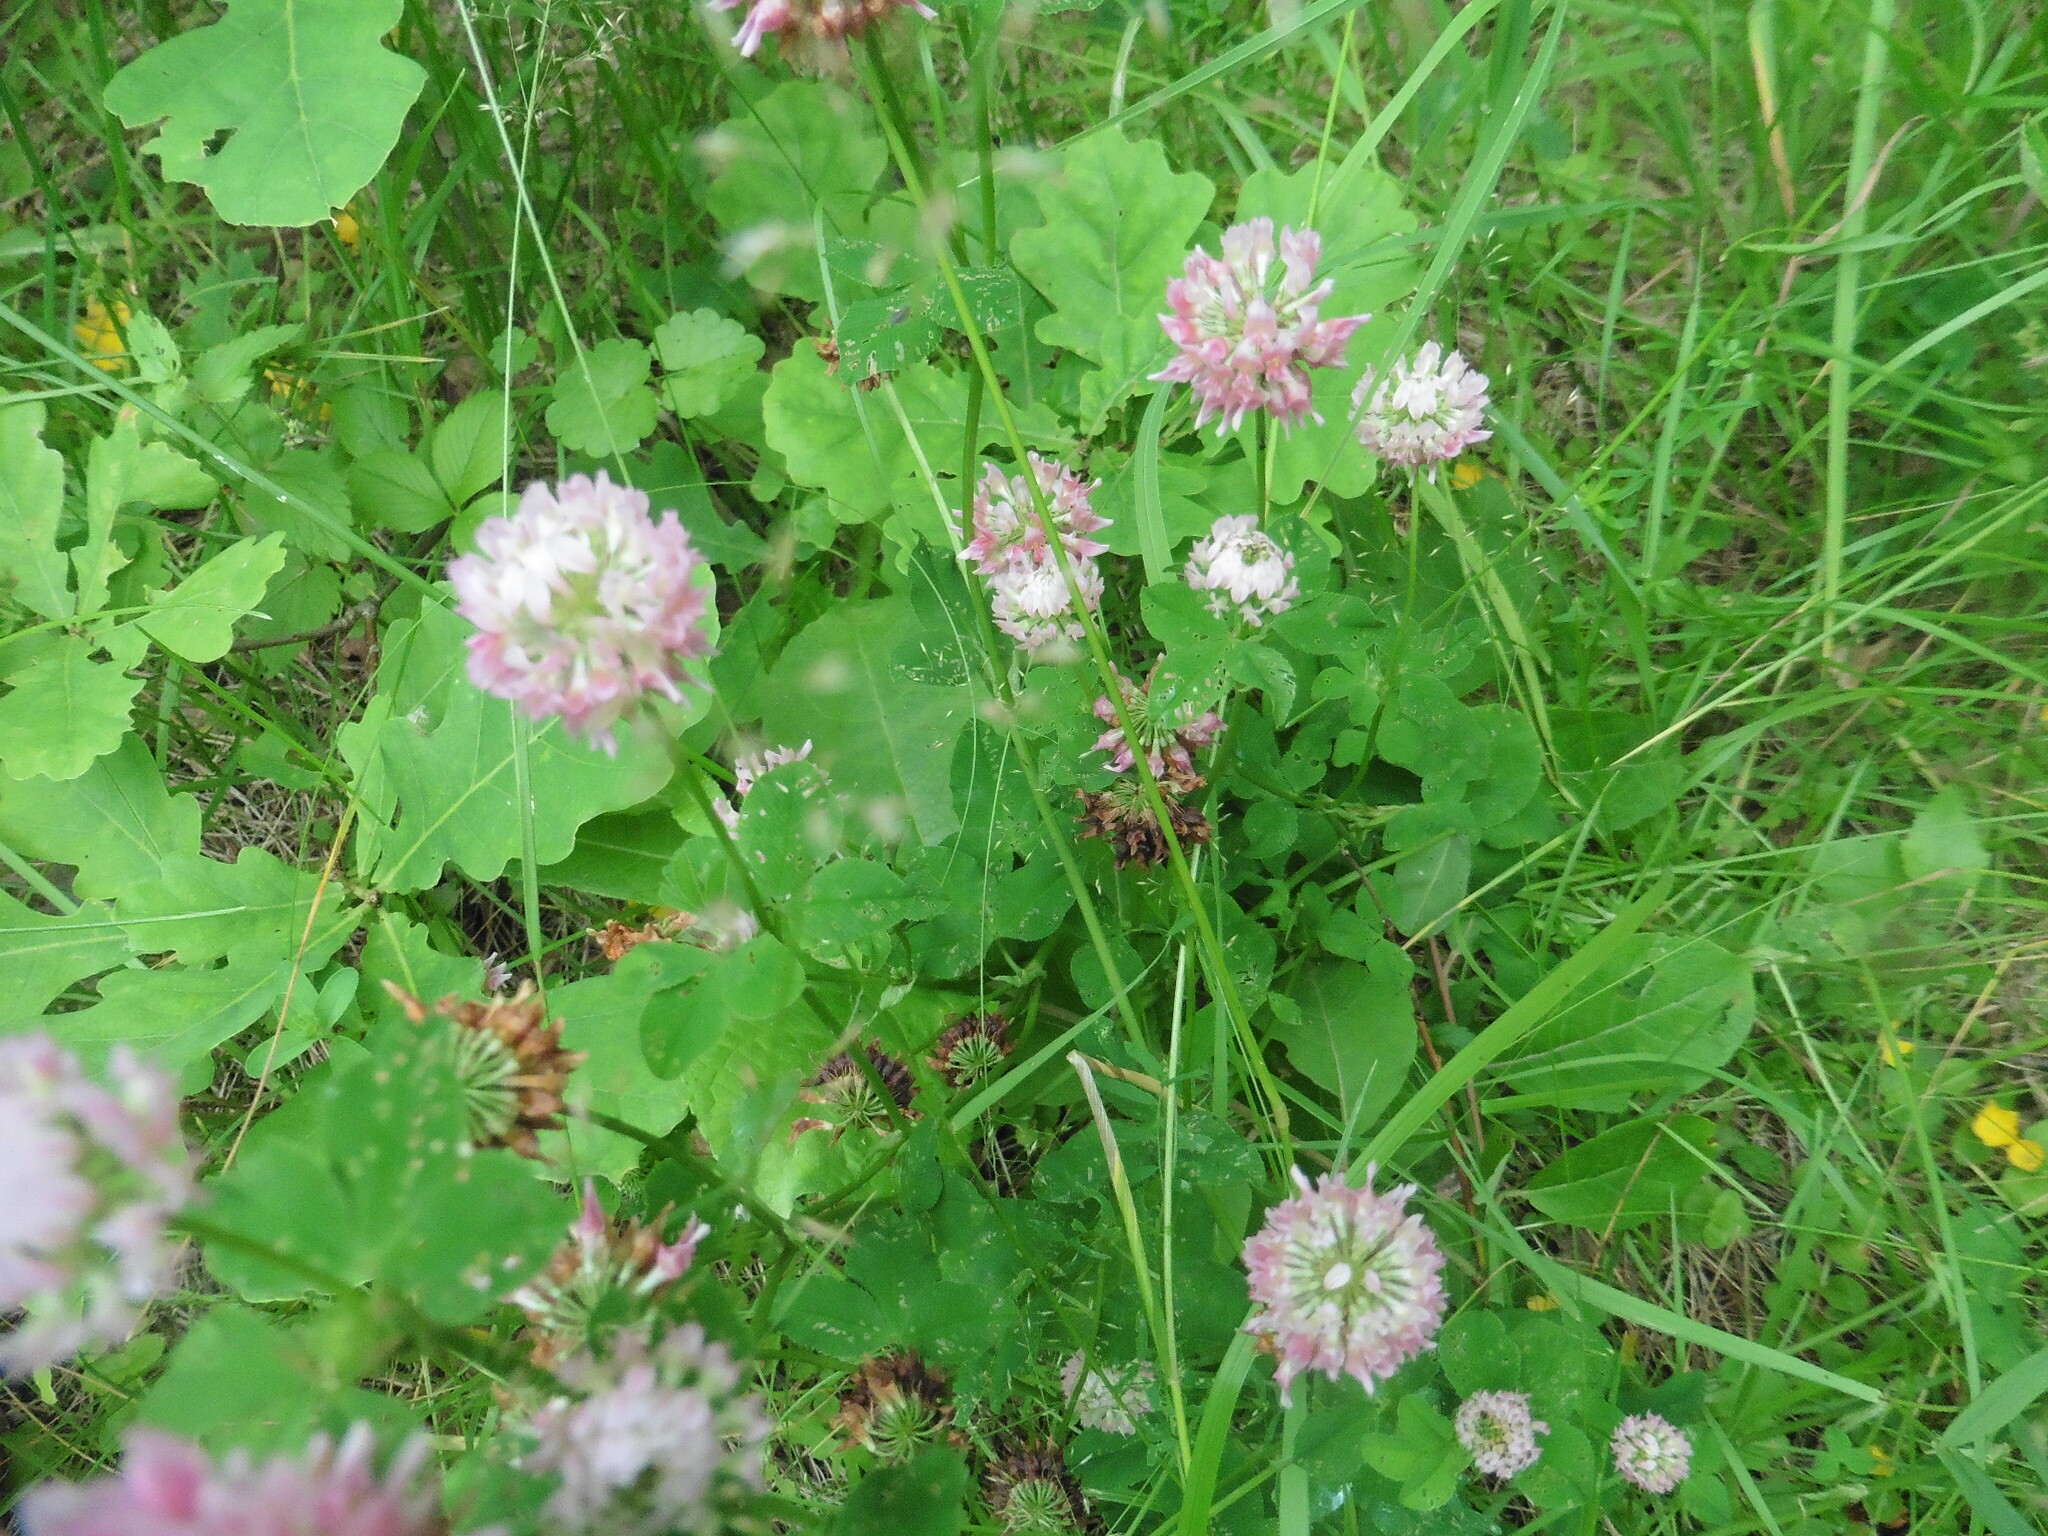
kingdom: Plantae
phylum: Tracheophyta
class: Magnoliopsida
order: Fabales
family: Fabaceae
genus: Trifolium
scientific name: Trifolium hybridum
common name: Alsike clover
